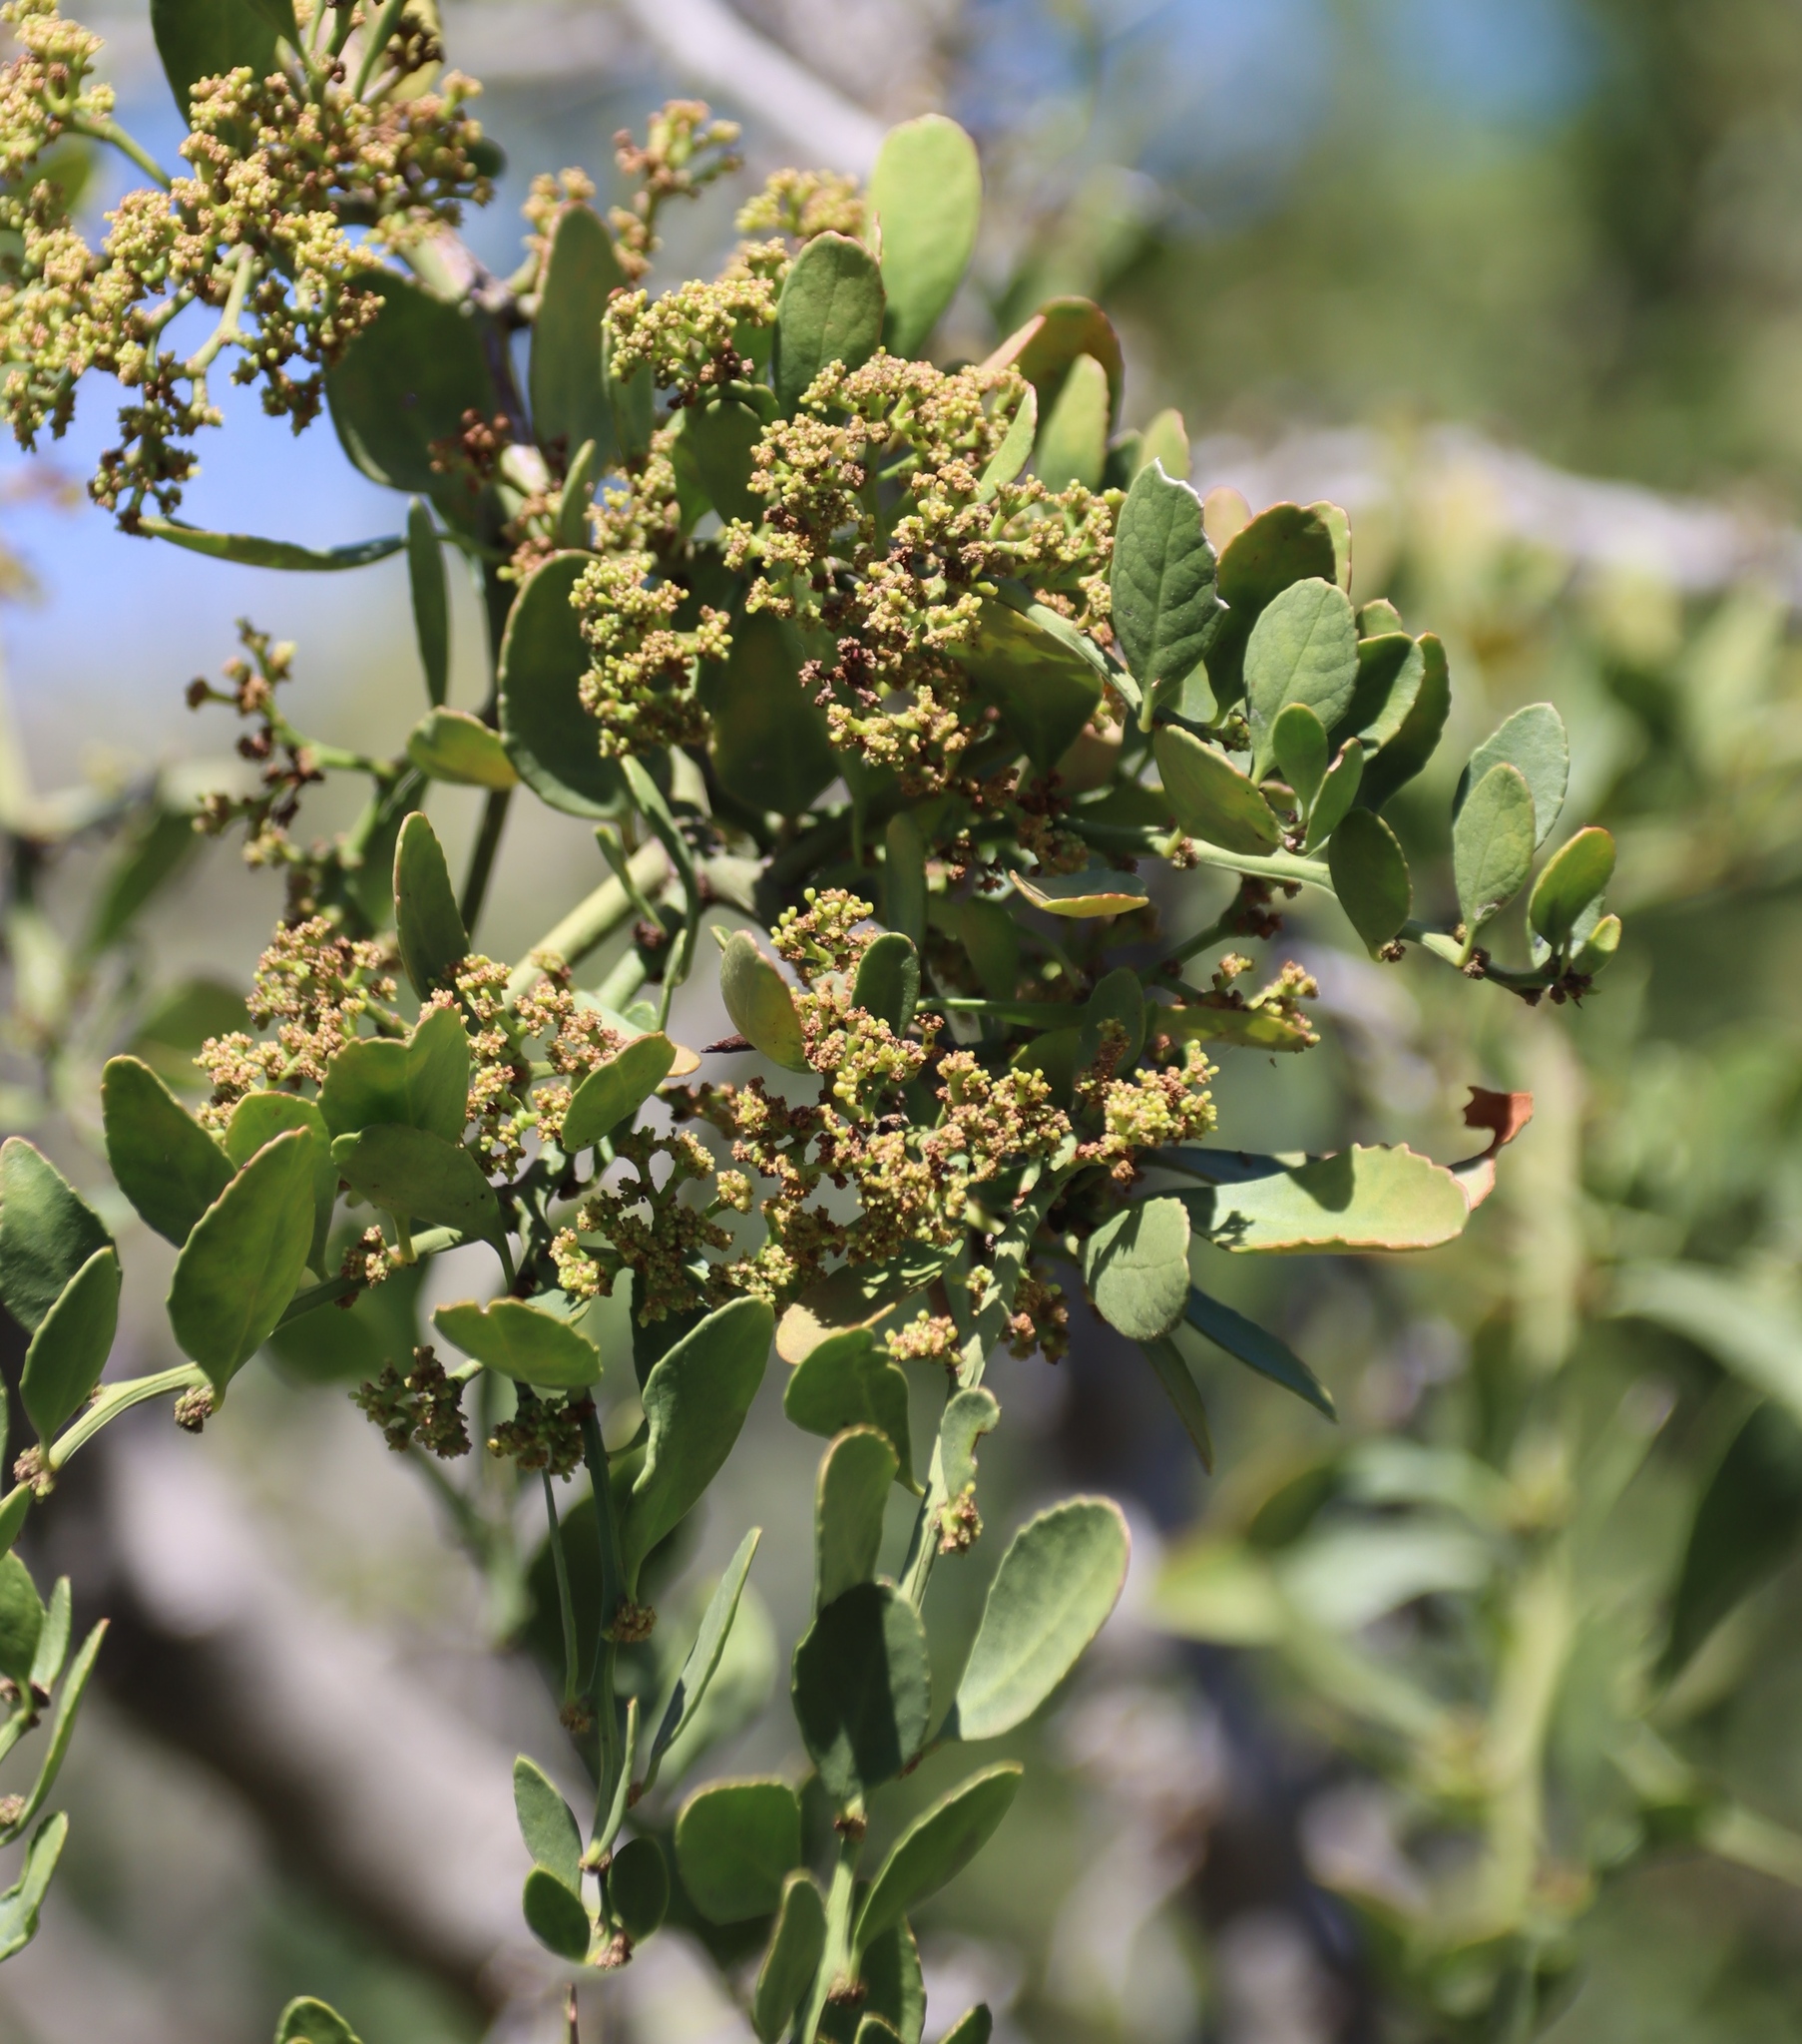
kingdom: Plantae
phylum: Tracheophyta
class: Magnoliopsida
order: Celastrales
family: Celastraceae
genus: Gymnosporia
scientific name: Gymnosporia buxifolia
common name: Common spike-thorn
